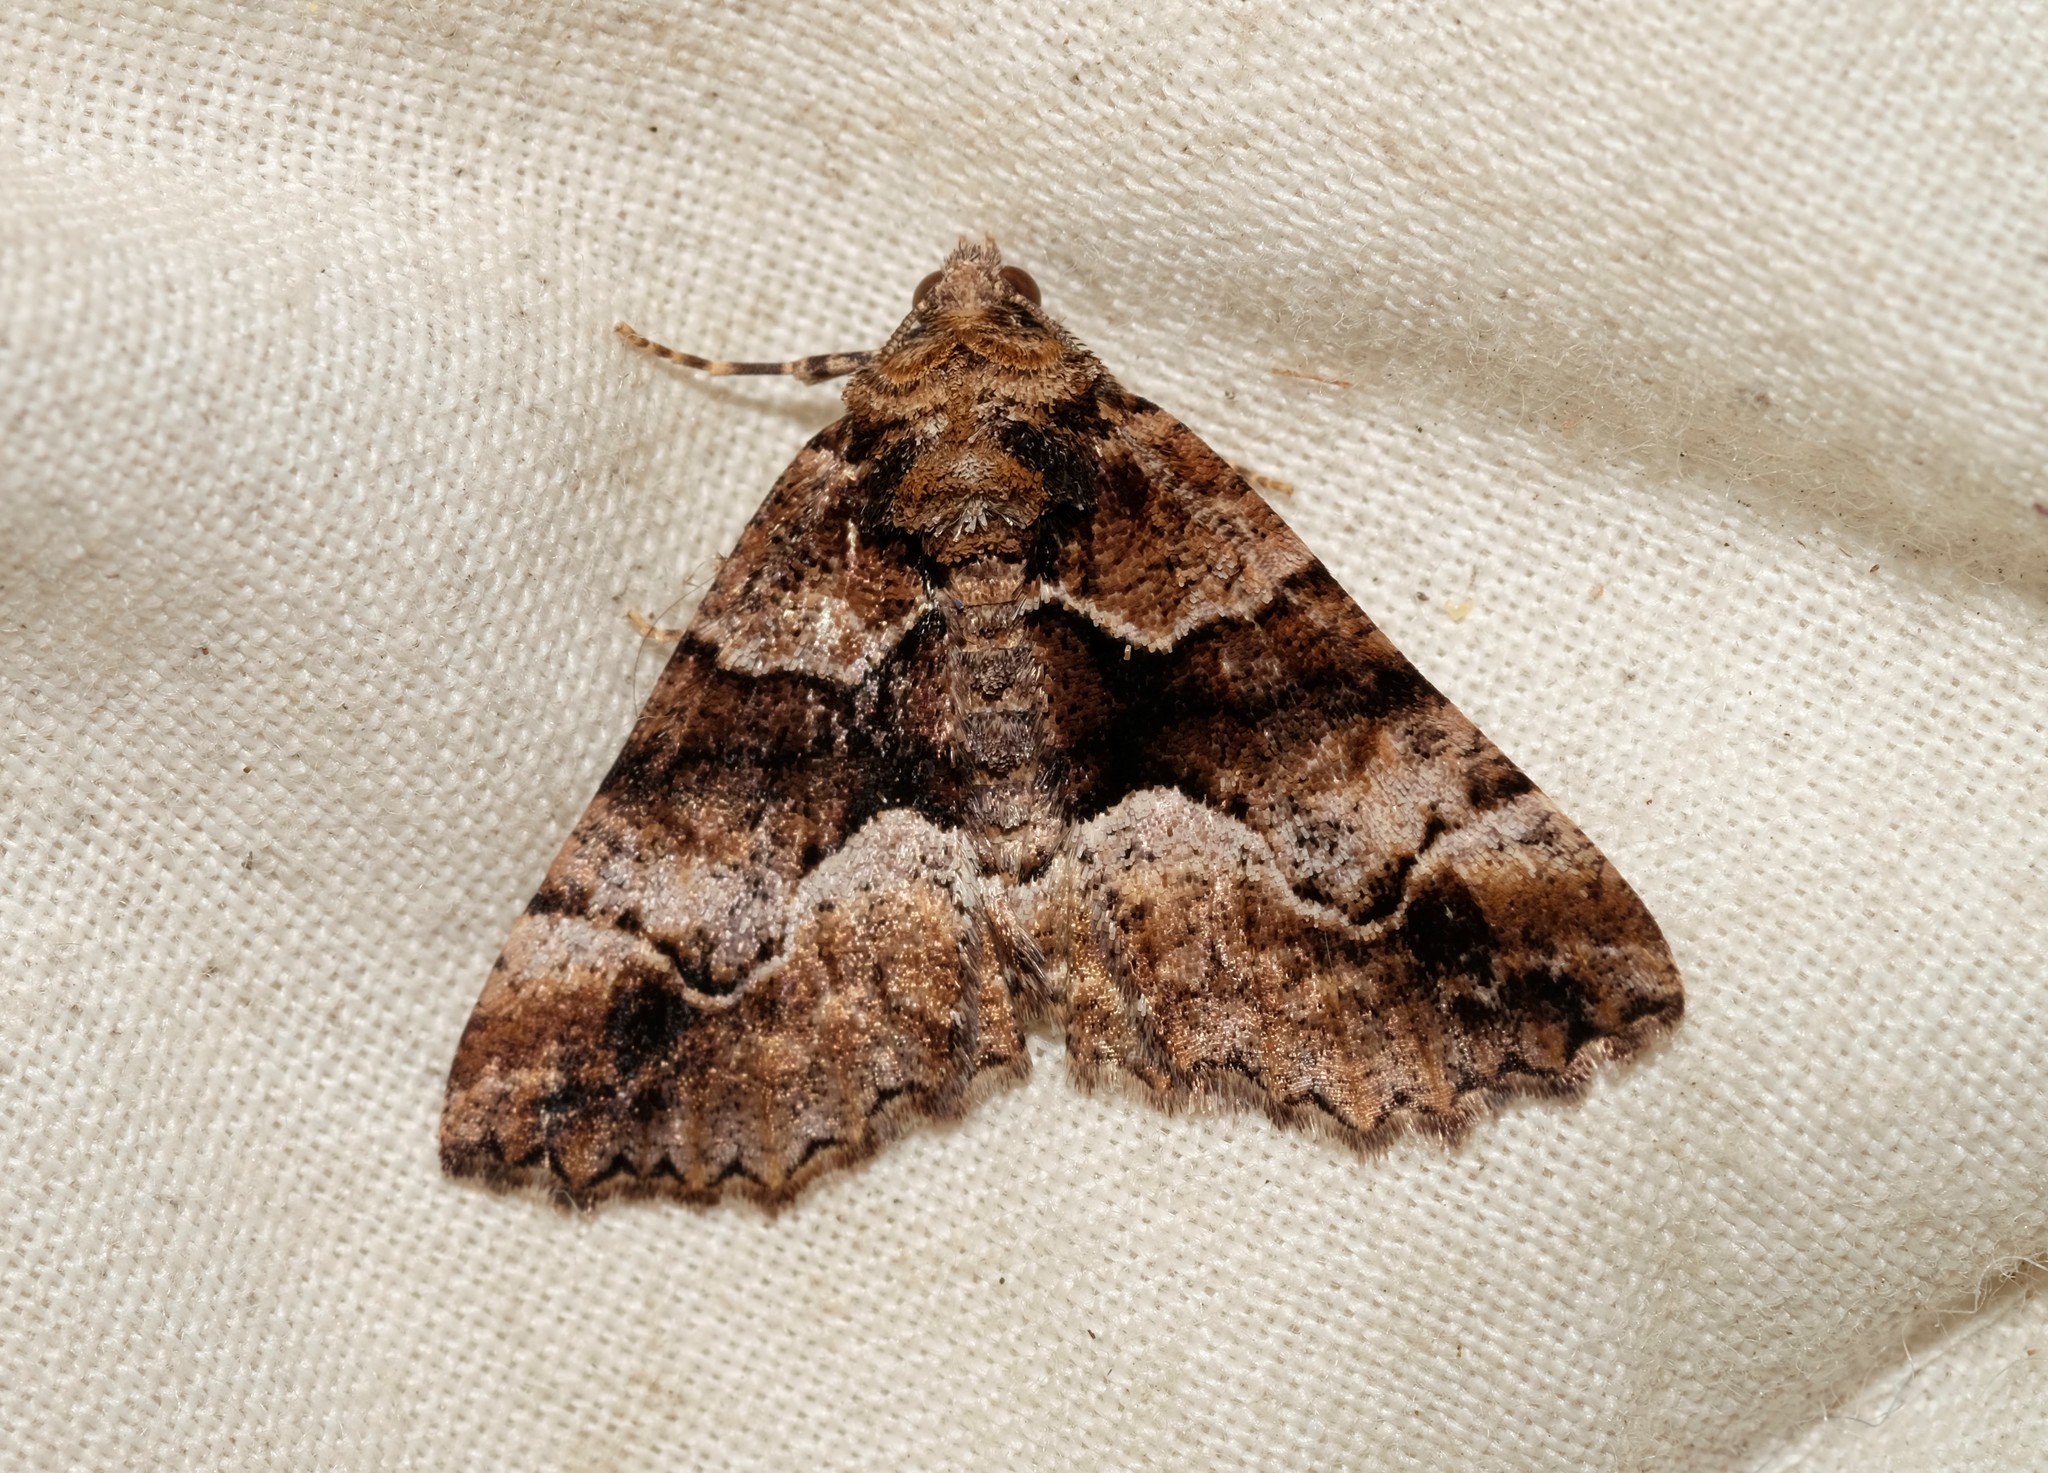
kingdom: Animalia
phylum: Arthropoda
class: Insecta
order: Lepidoptera
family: Geometridae
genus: Gastrina
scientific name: Gastrina cristaria
